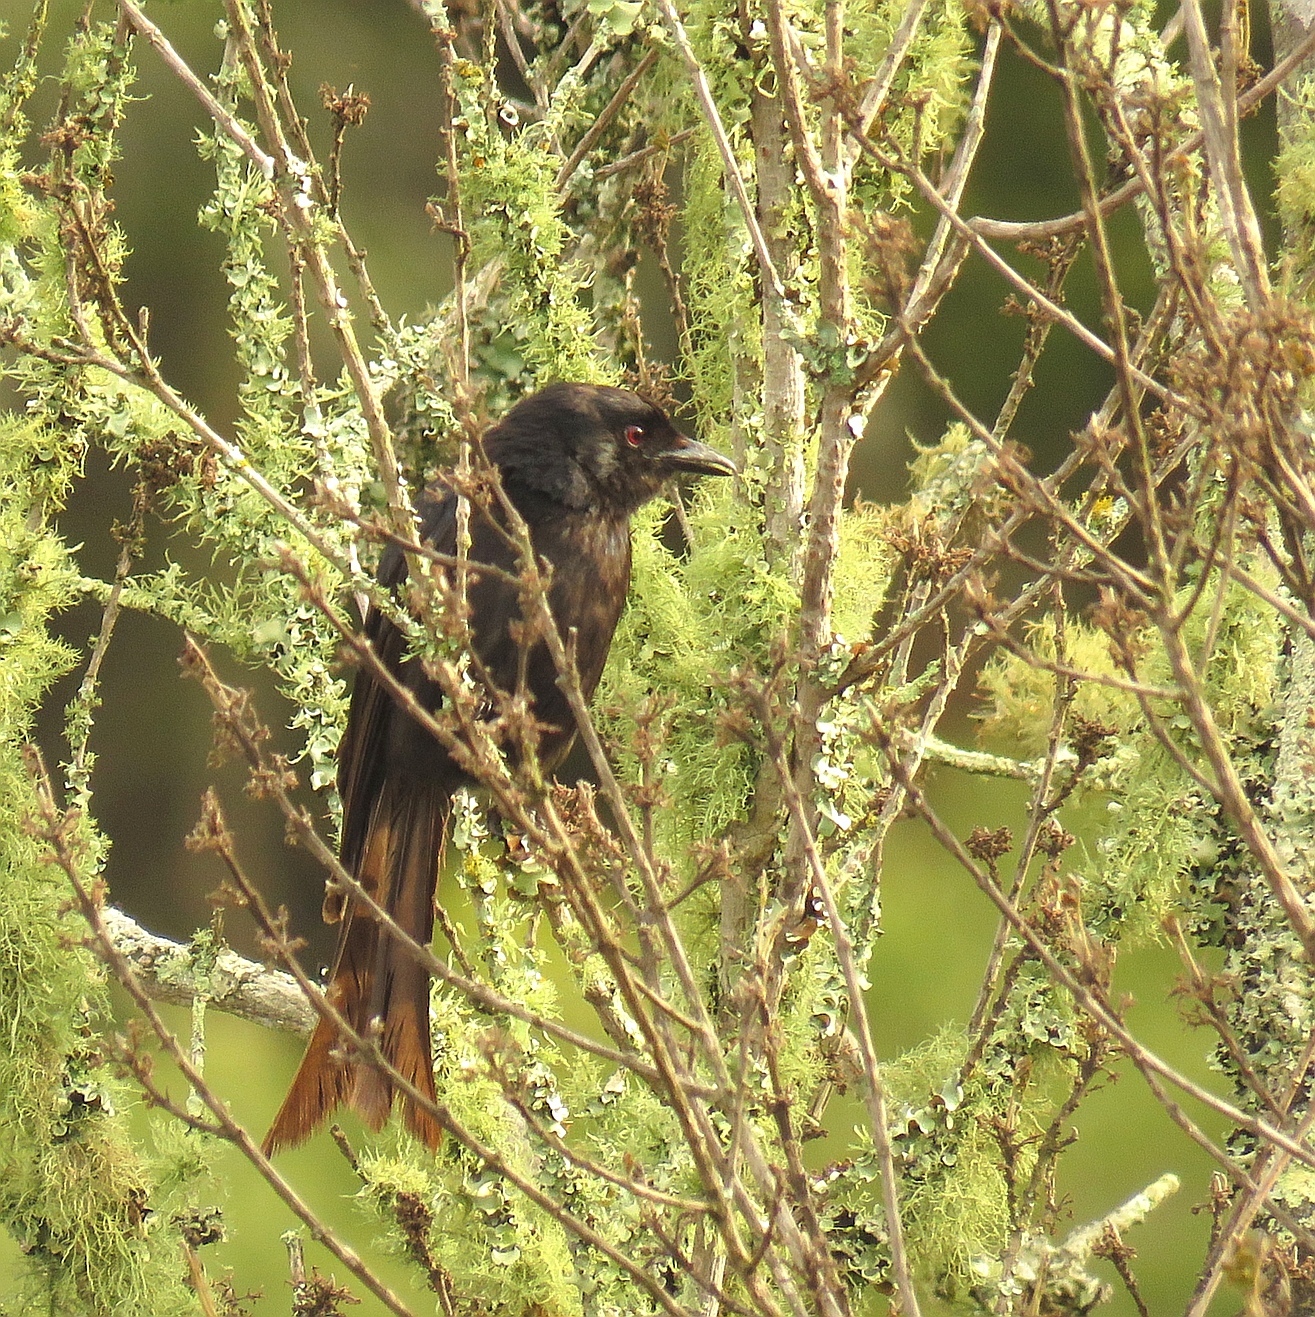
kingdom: Animalia
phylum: Chordata
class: Aves
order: Passeriformes
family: Dicruridae
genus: Dicrurus
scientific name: Dicrurus adsimilis
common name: Fork-tailed drongo
